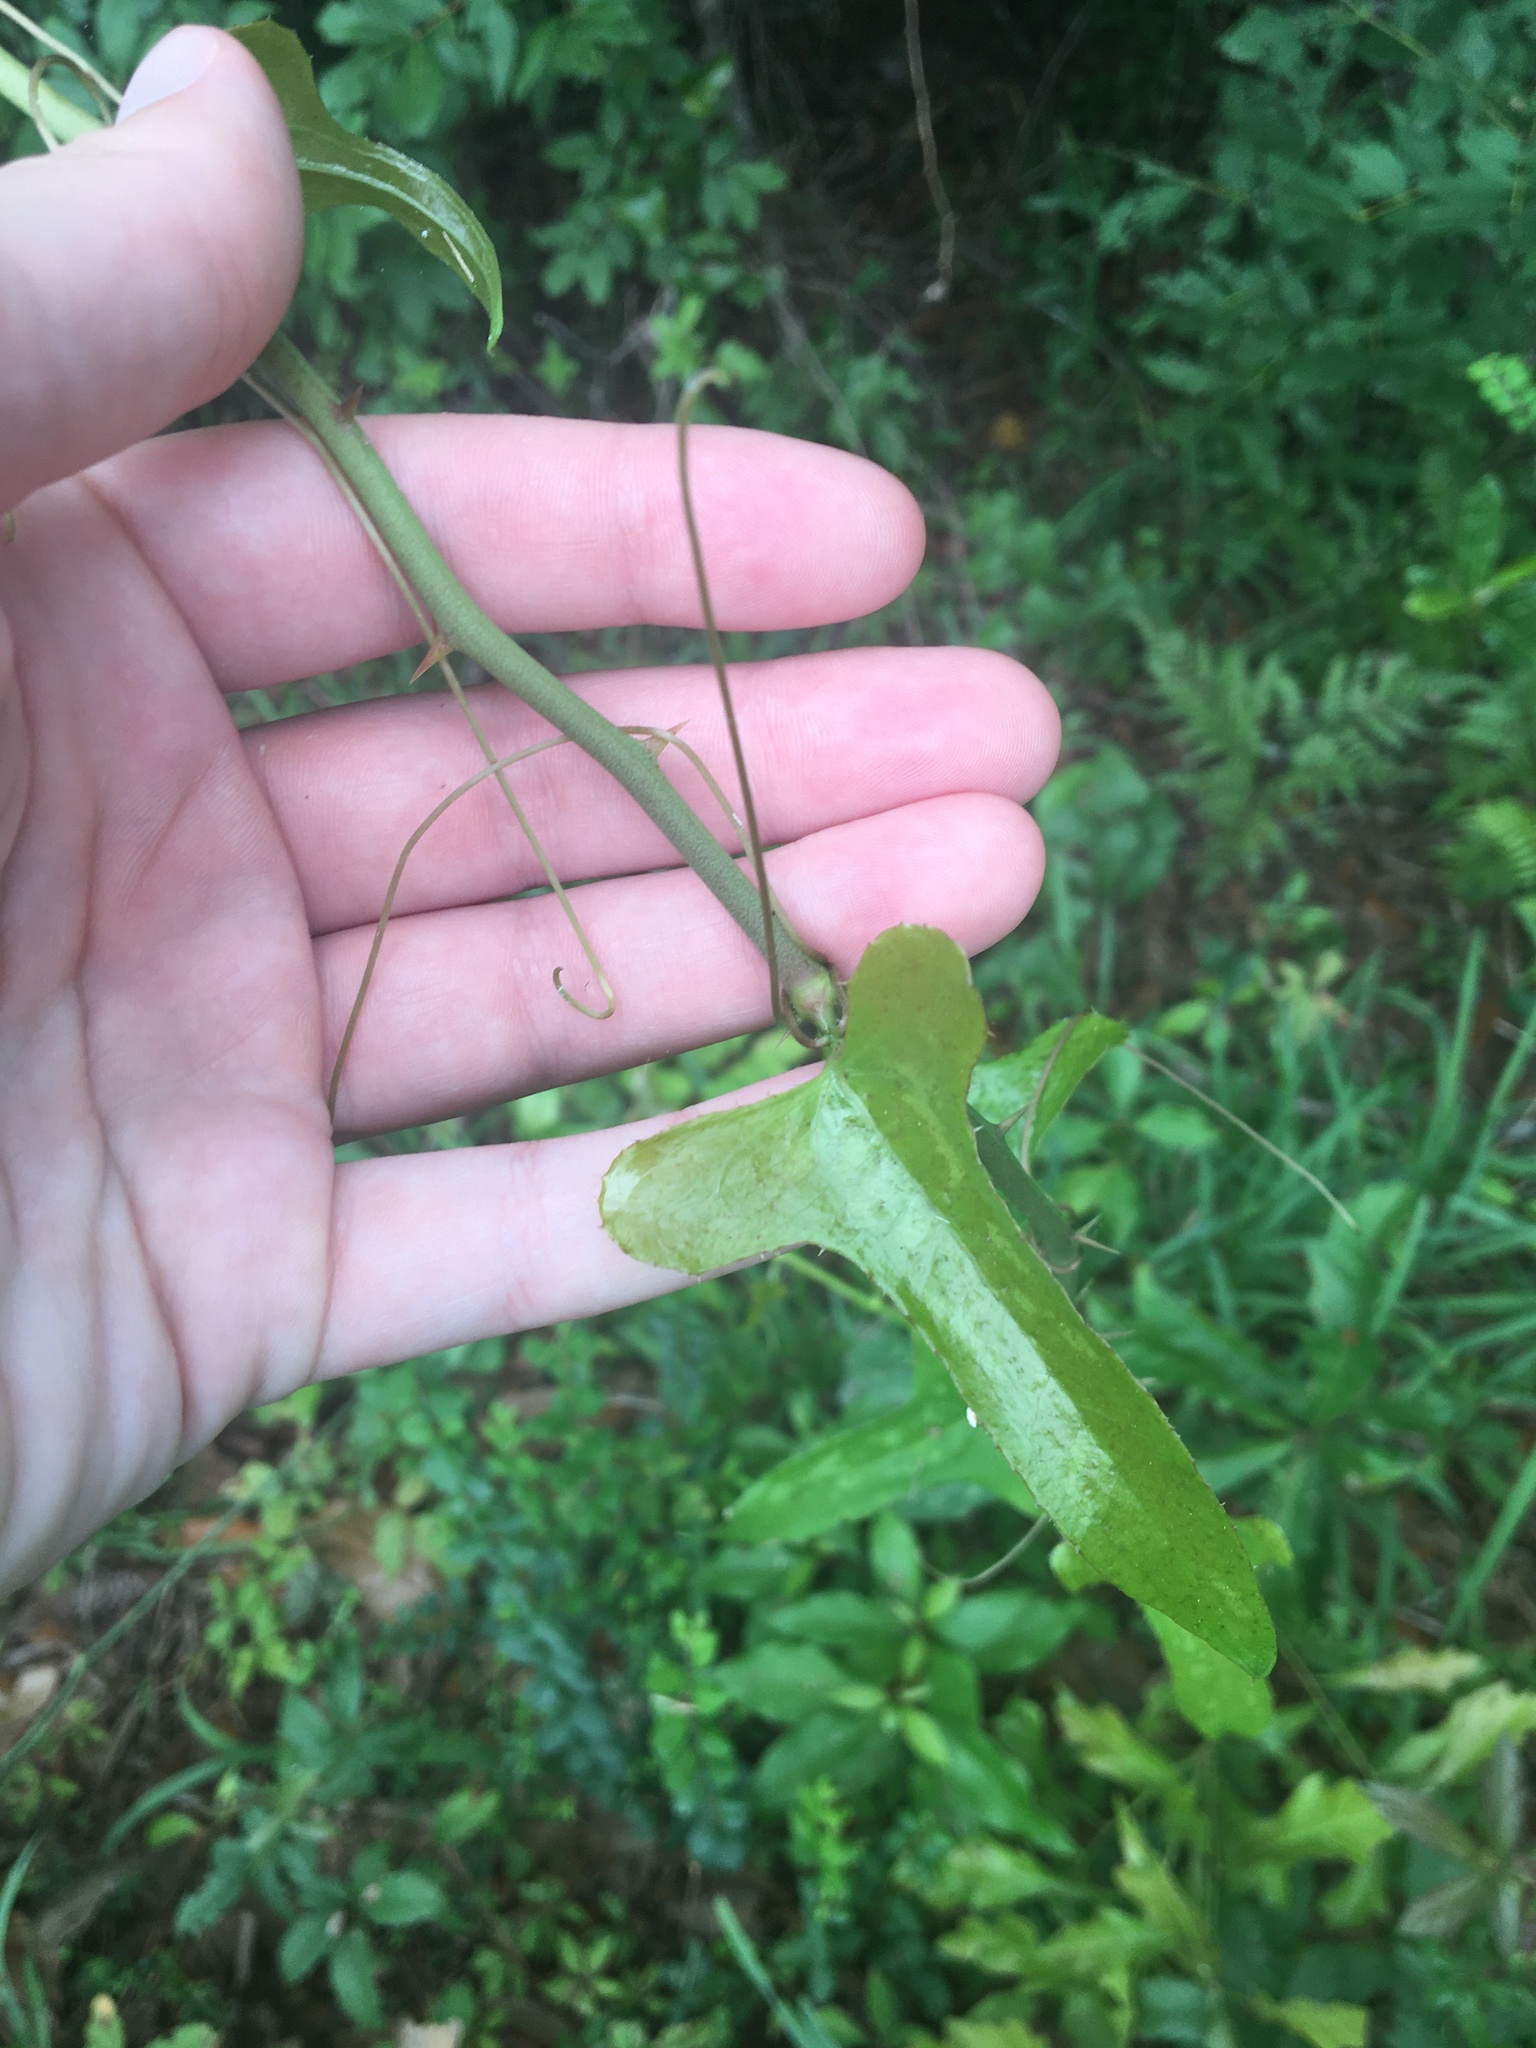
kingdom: Plantae
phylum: Tracheophyta
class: Liliopsida
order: Liliales
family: Smilacaceae
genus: Smilax
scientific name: Smilax bona-nox
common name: Catbrier
